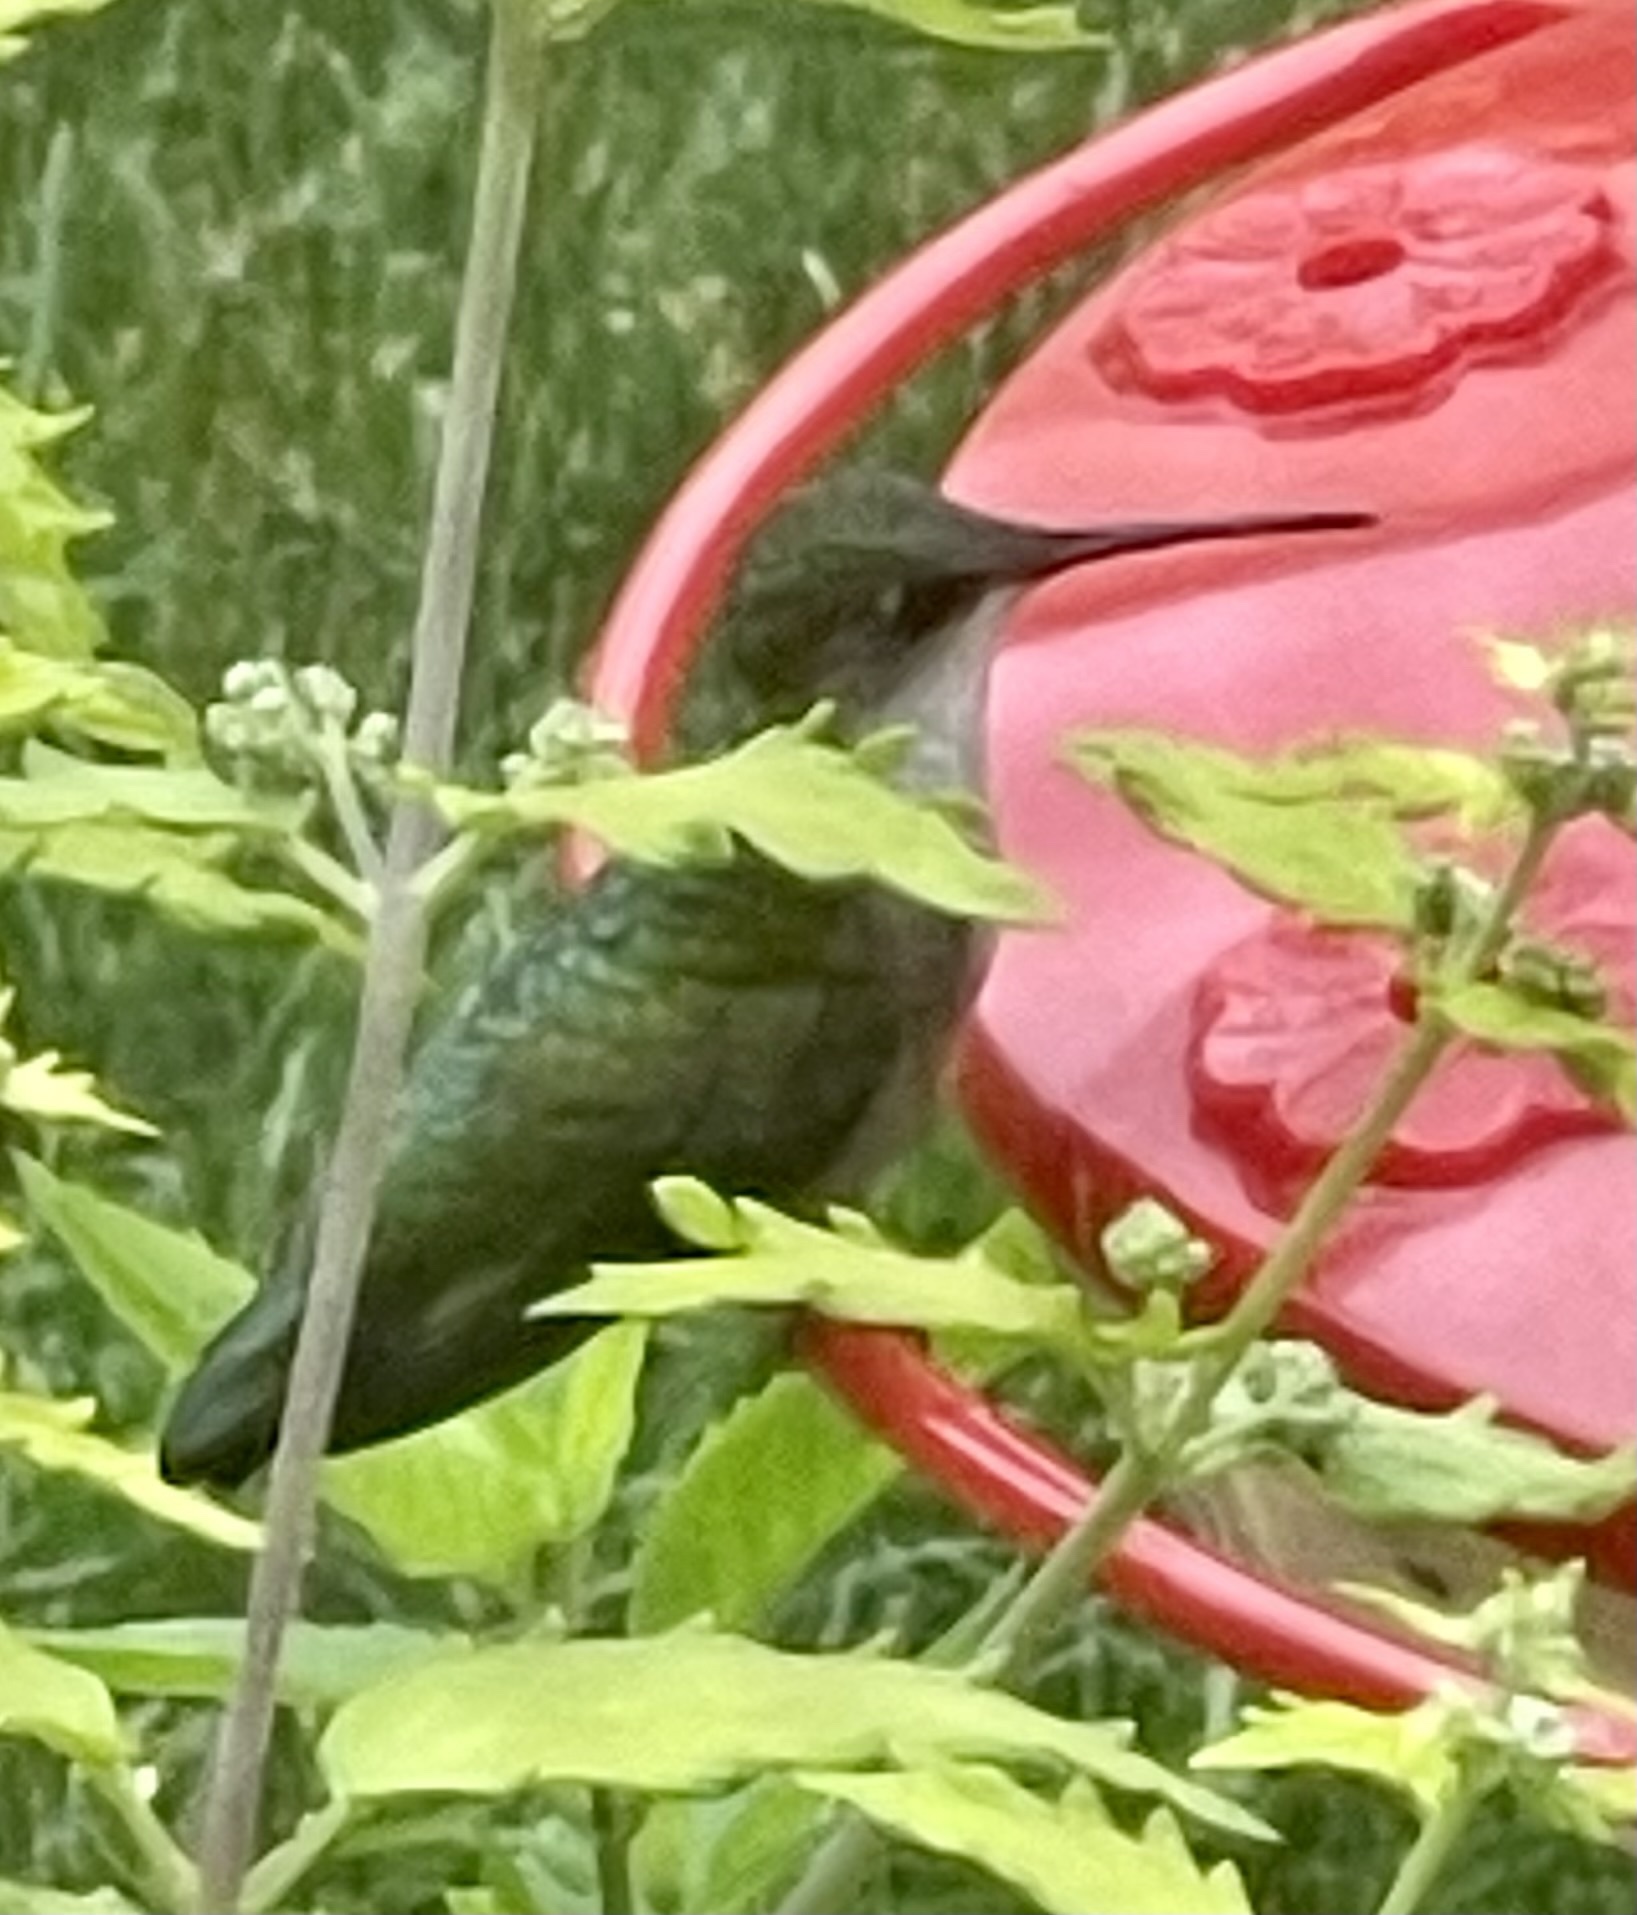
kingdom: Animalia
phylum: Chordata
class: Aves
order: Apodiformes
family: Trochilidae
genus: Archilochus
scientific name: Archilochus colubris
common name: Ruby-throated hummingbird
